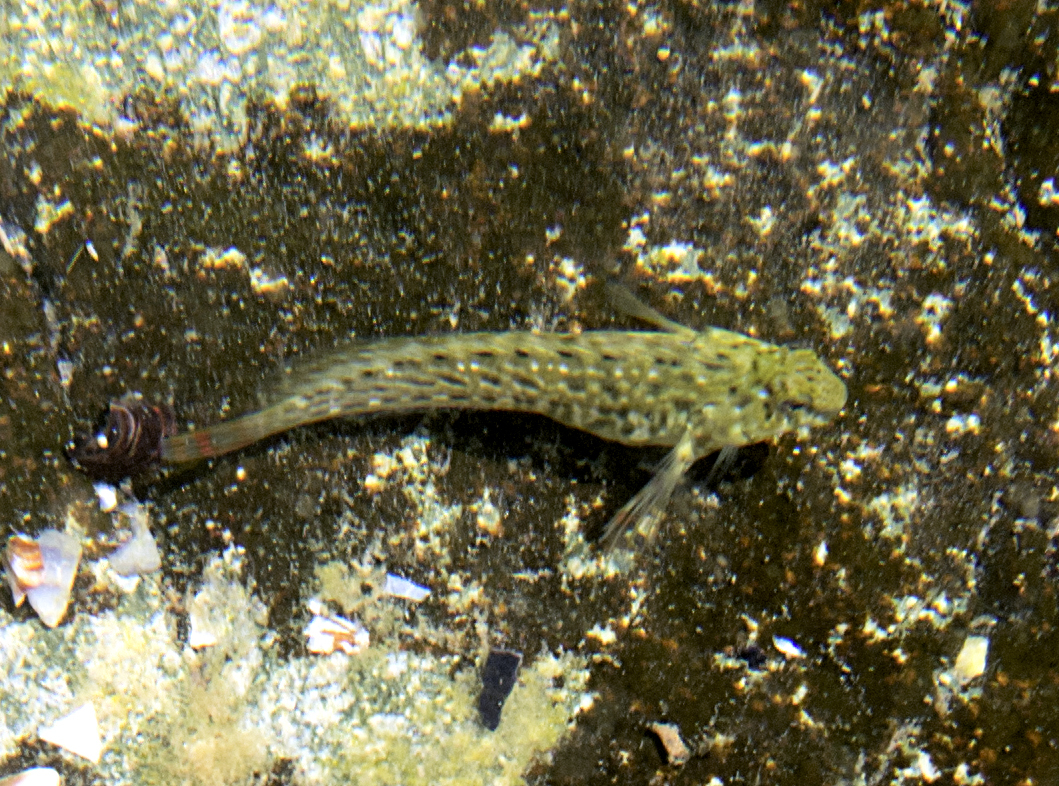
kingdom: Animalia
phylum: Chordata
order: Perciformes
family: Blenniidae
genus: Parablennius
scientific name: Parablennius sanguinolentus
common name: Black sea blenny
